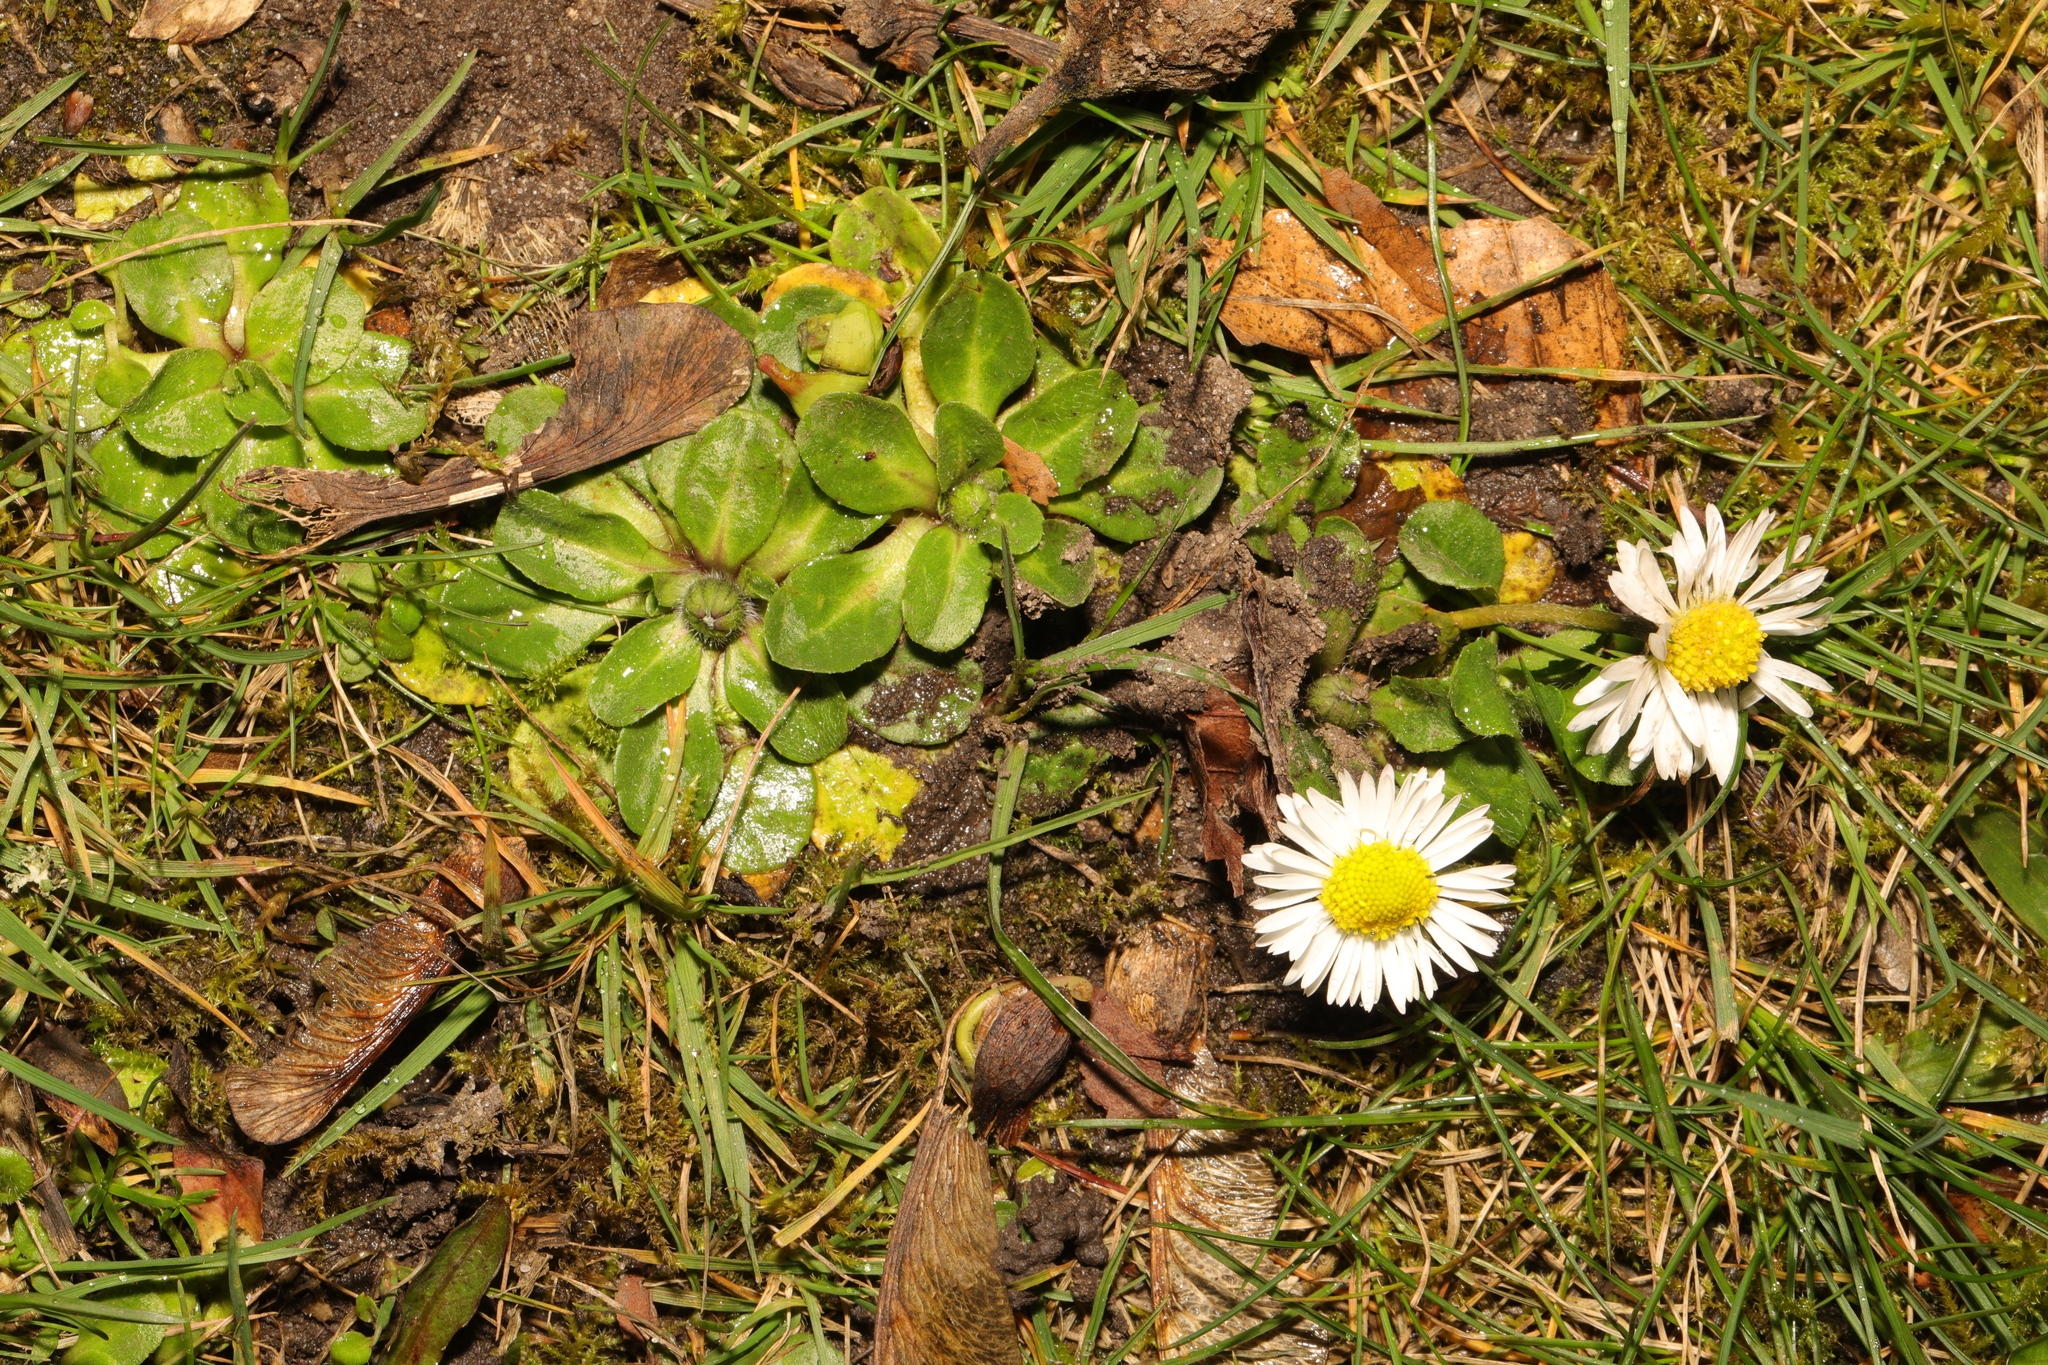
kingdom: Plantae
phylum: Tracheophyta
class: Magnoliopsida
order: Asterales
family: Asteraceae
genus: Bellis
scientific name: Bellis perennis
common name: Lawndaisy
